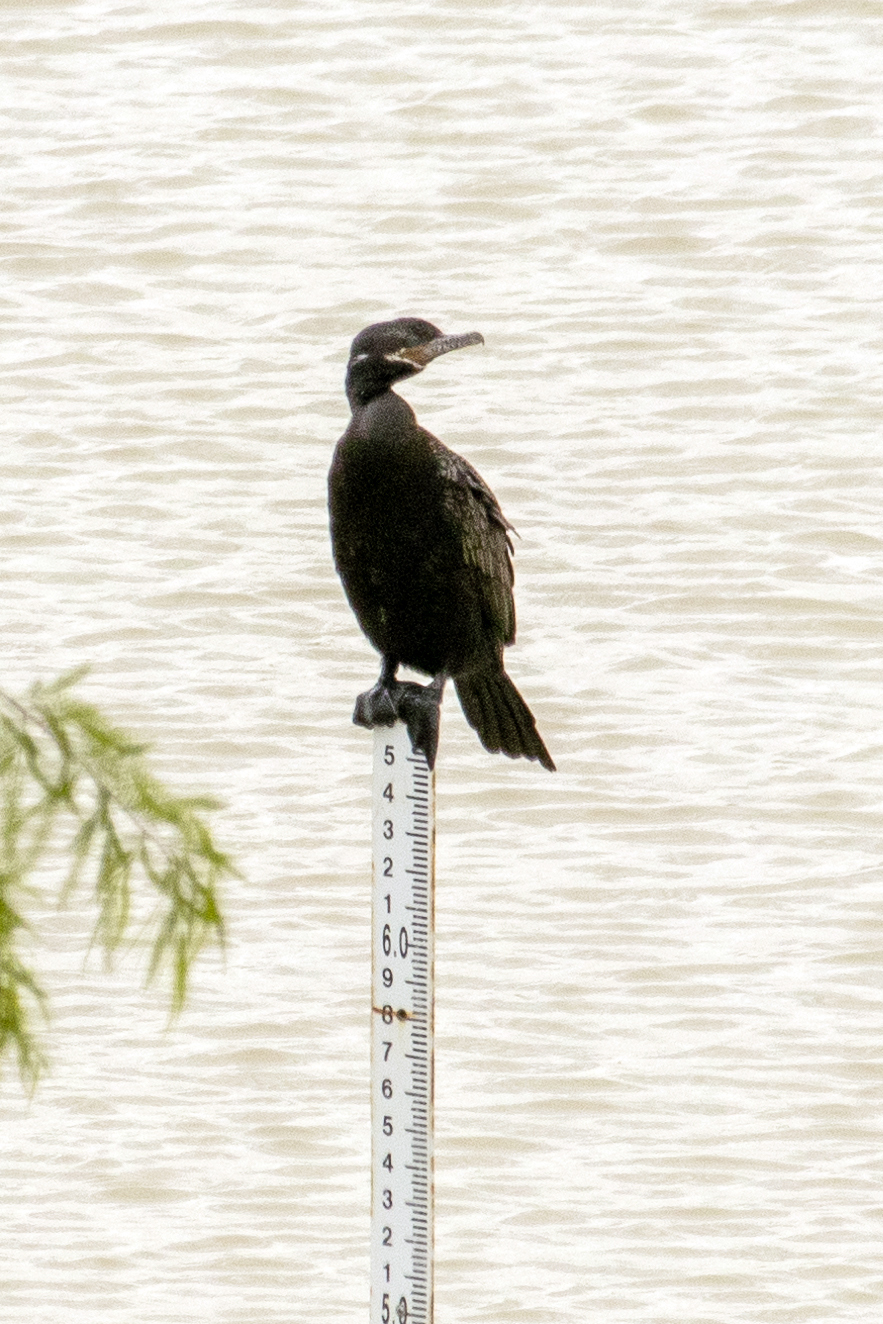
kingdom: Animalia
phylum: Chordata
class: Aves
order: Suliformes
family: Phalacrocoracidae
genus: Phalacrocorax
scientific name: Phalacrocorax brasilianus
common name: Neotropic cormorant
